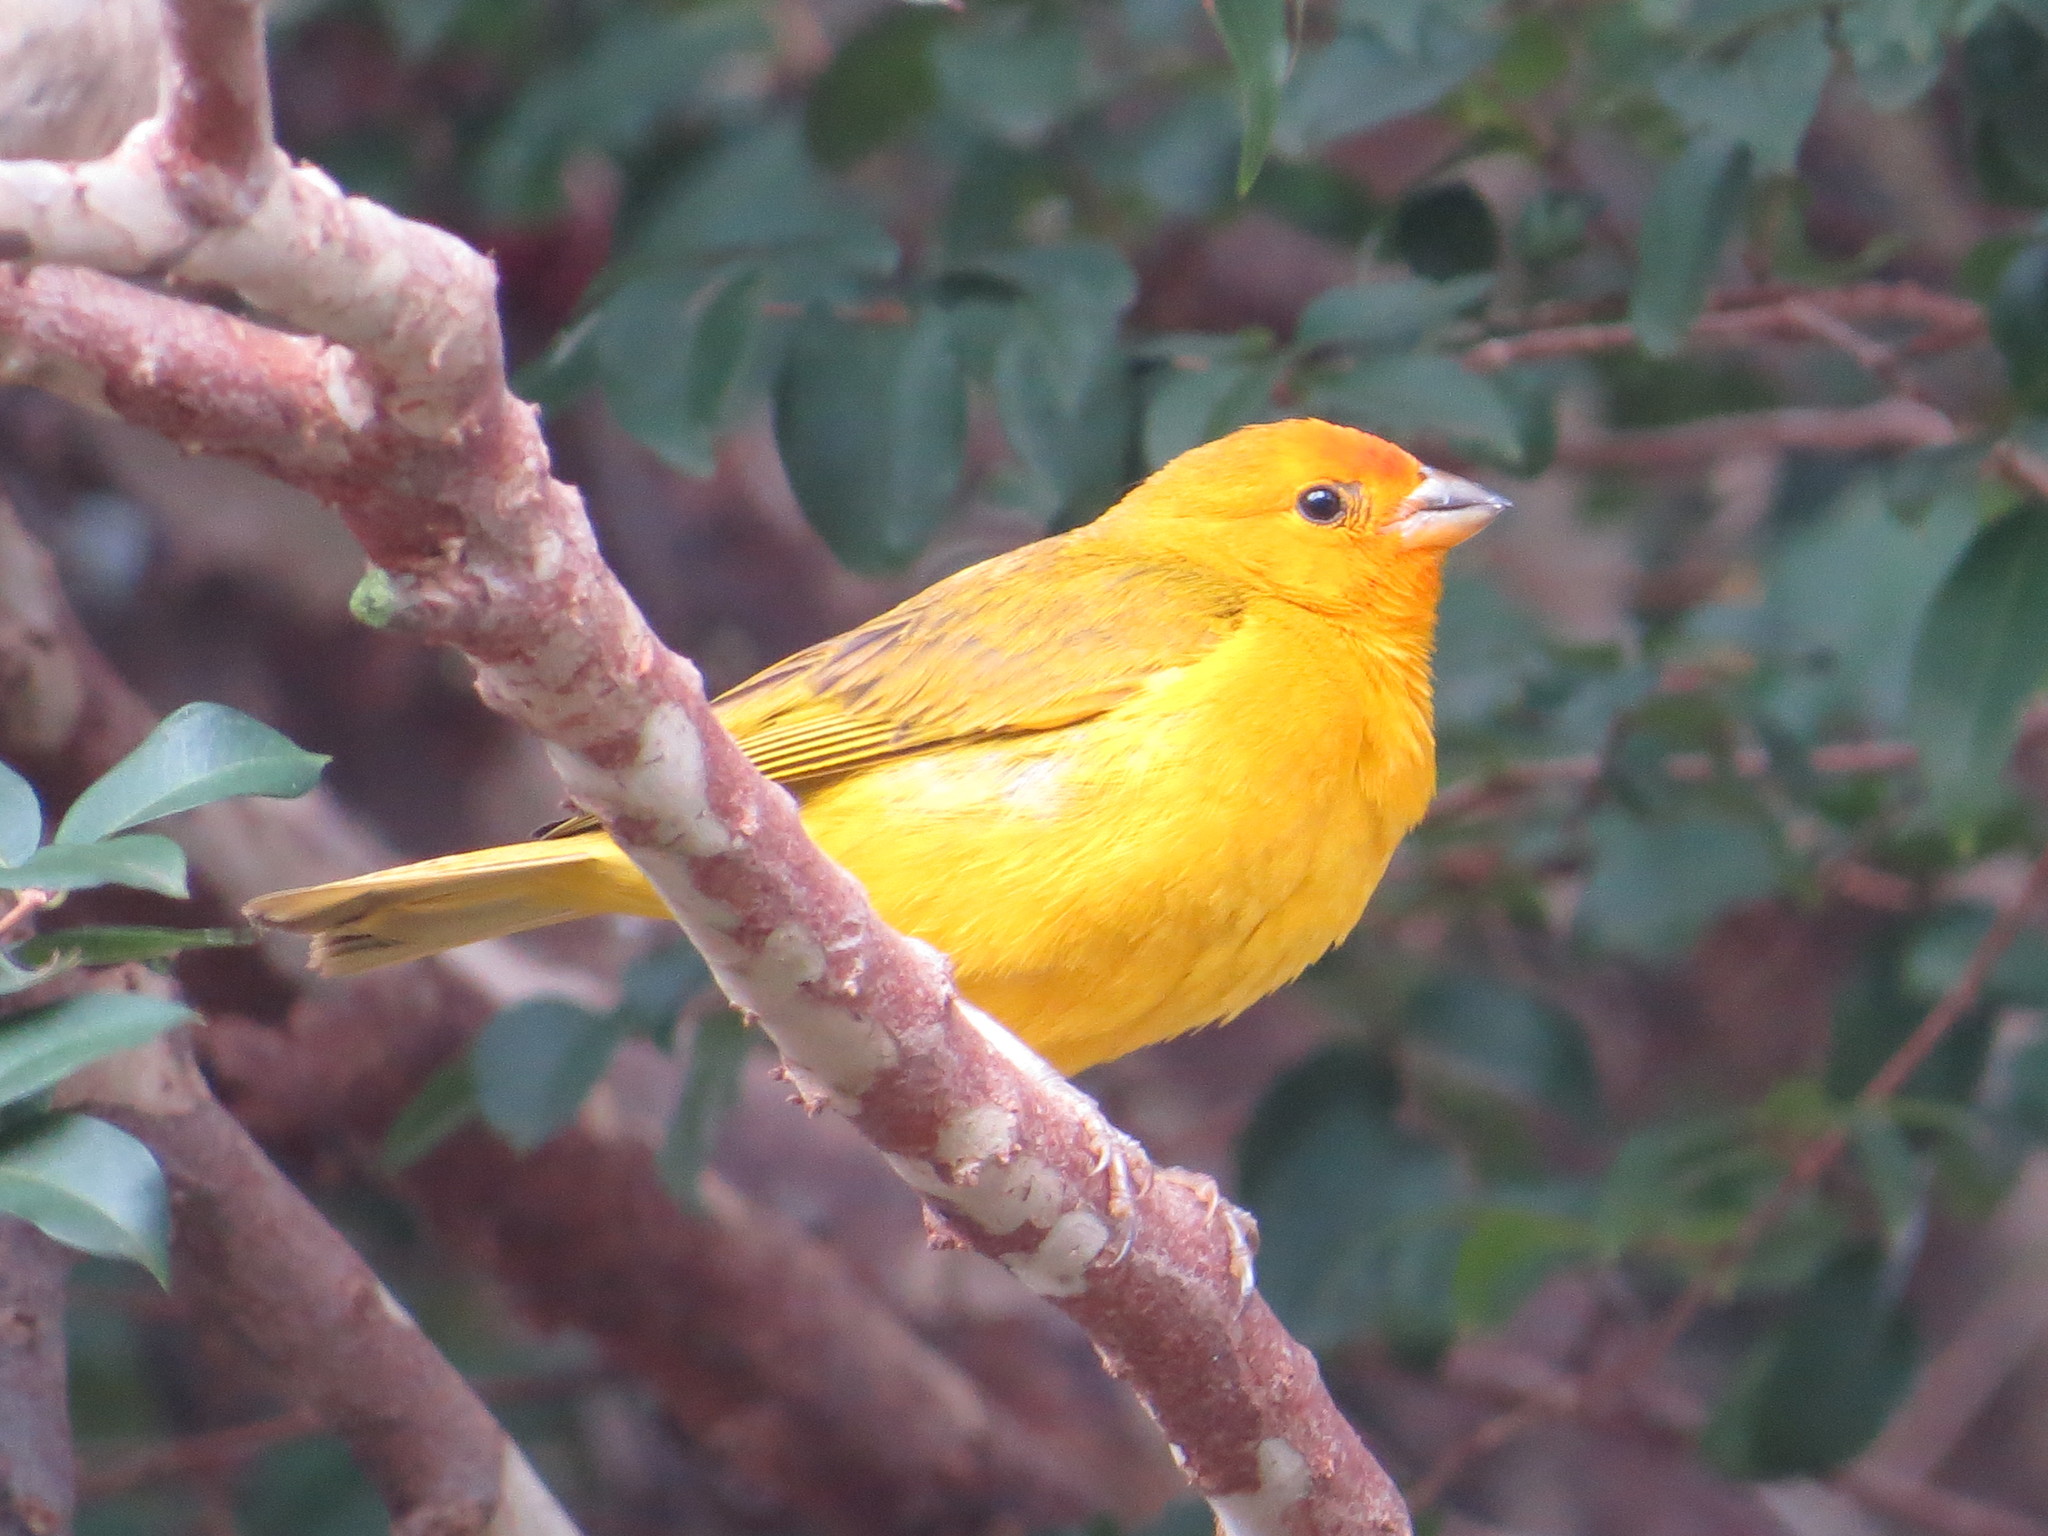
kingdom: Animalia
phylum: Chordata
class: Aves
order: Passeriformes
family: Thraupidae
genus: Sicalis
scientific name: Sicalis flaveola
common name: Saffron finch
